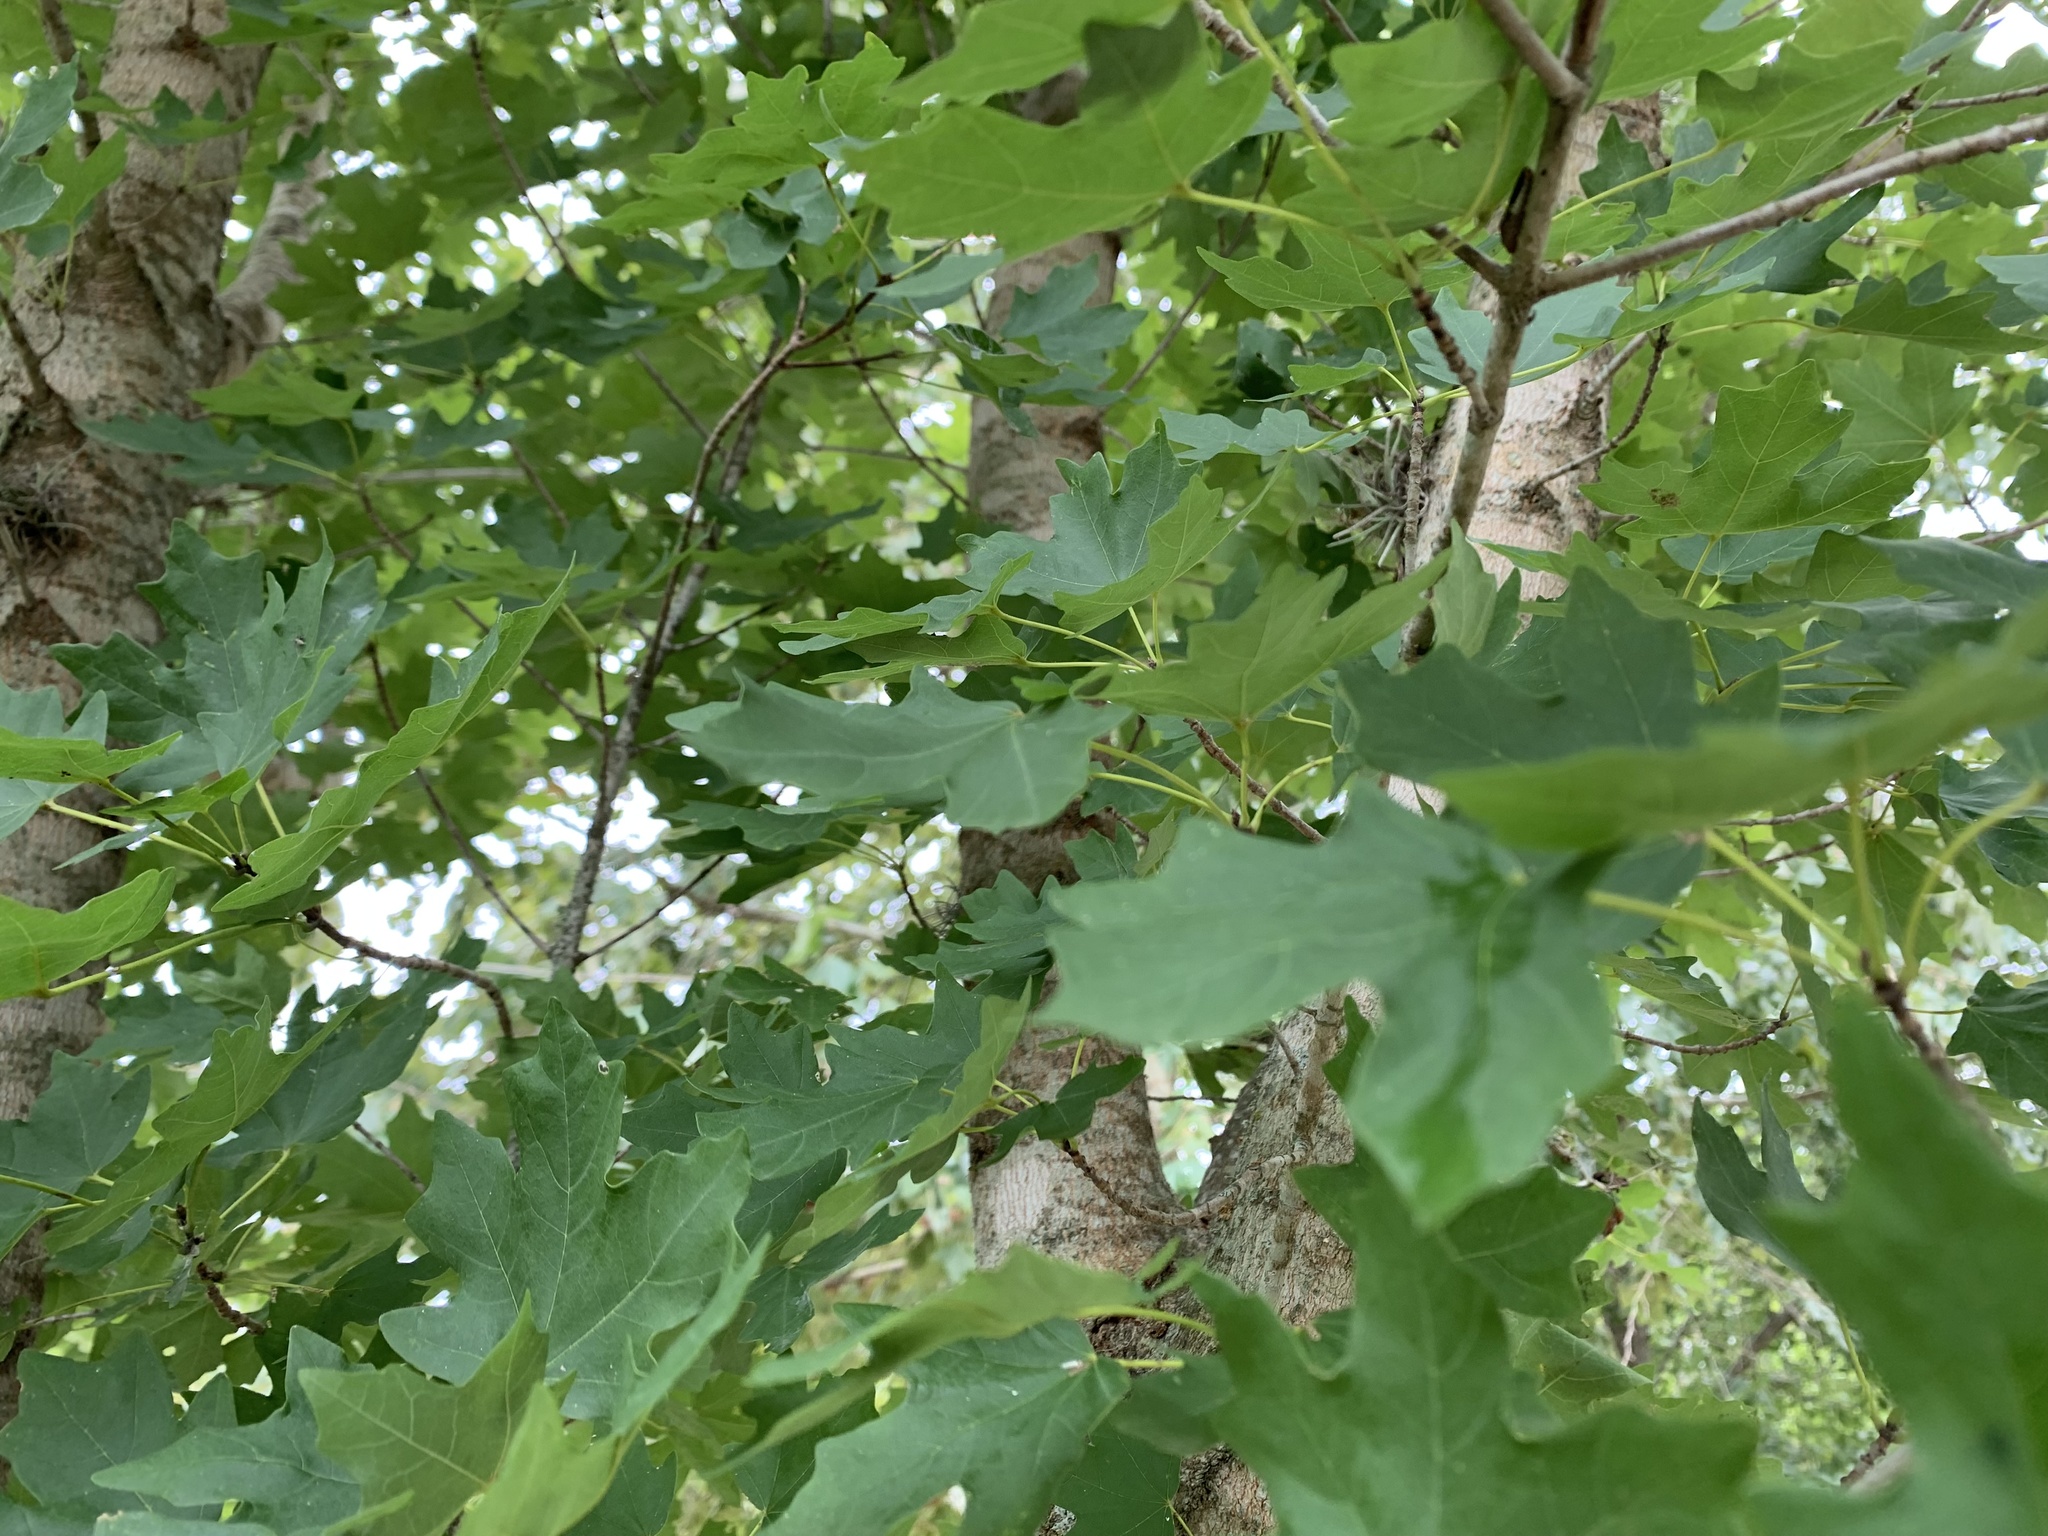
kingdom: Plantae
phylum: Tracheophyta
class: Magnoliopsida
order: Sapindales
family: Sapindaceae
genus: Acer
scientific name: Acer grandidentatum
